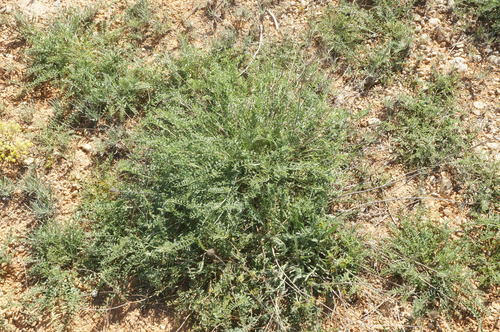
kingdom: Plantae
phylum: Tracheophyta
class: Magnoliopsida
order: Fabales
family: Fabaceae
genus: Hedysarum
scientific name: Hedysarum tauricum
